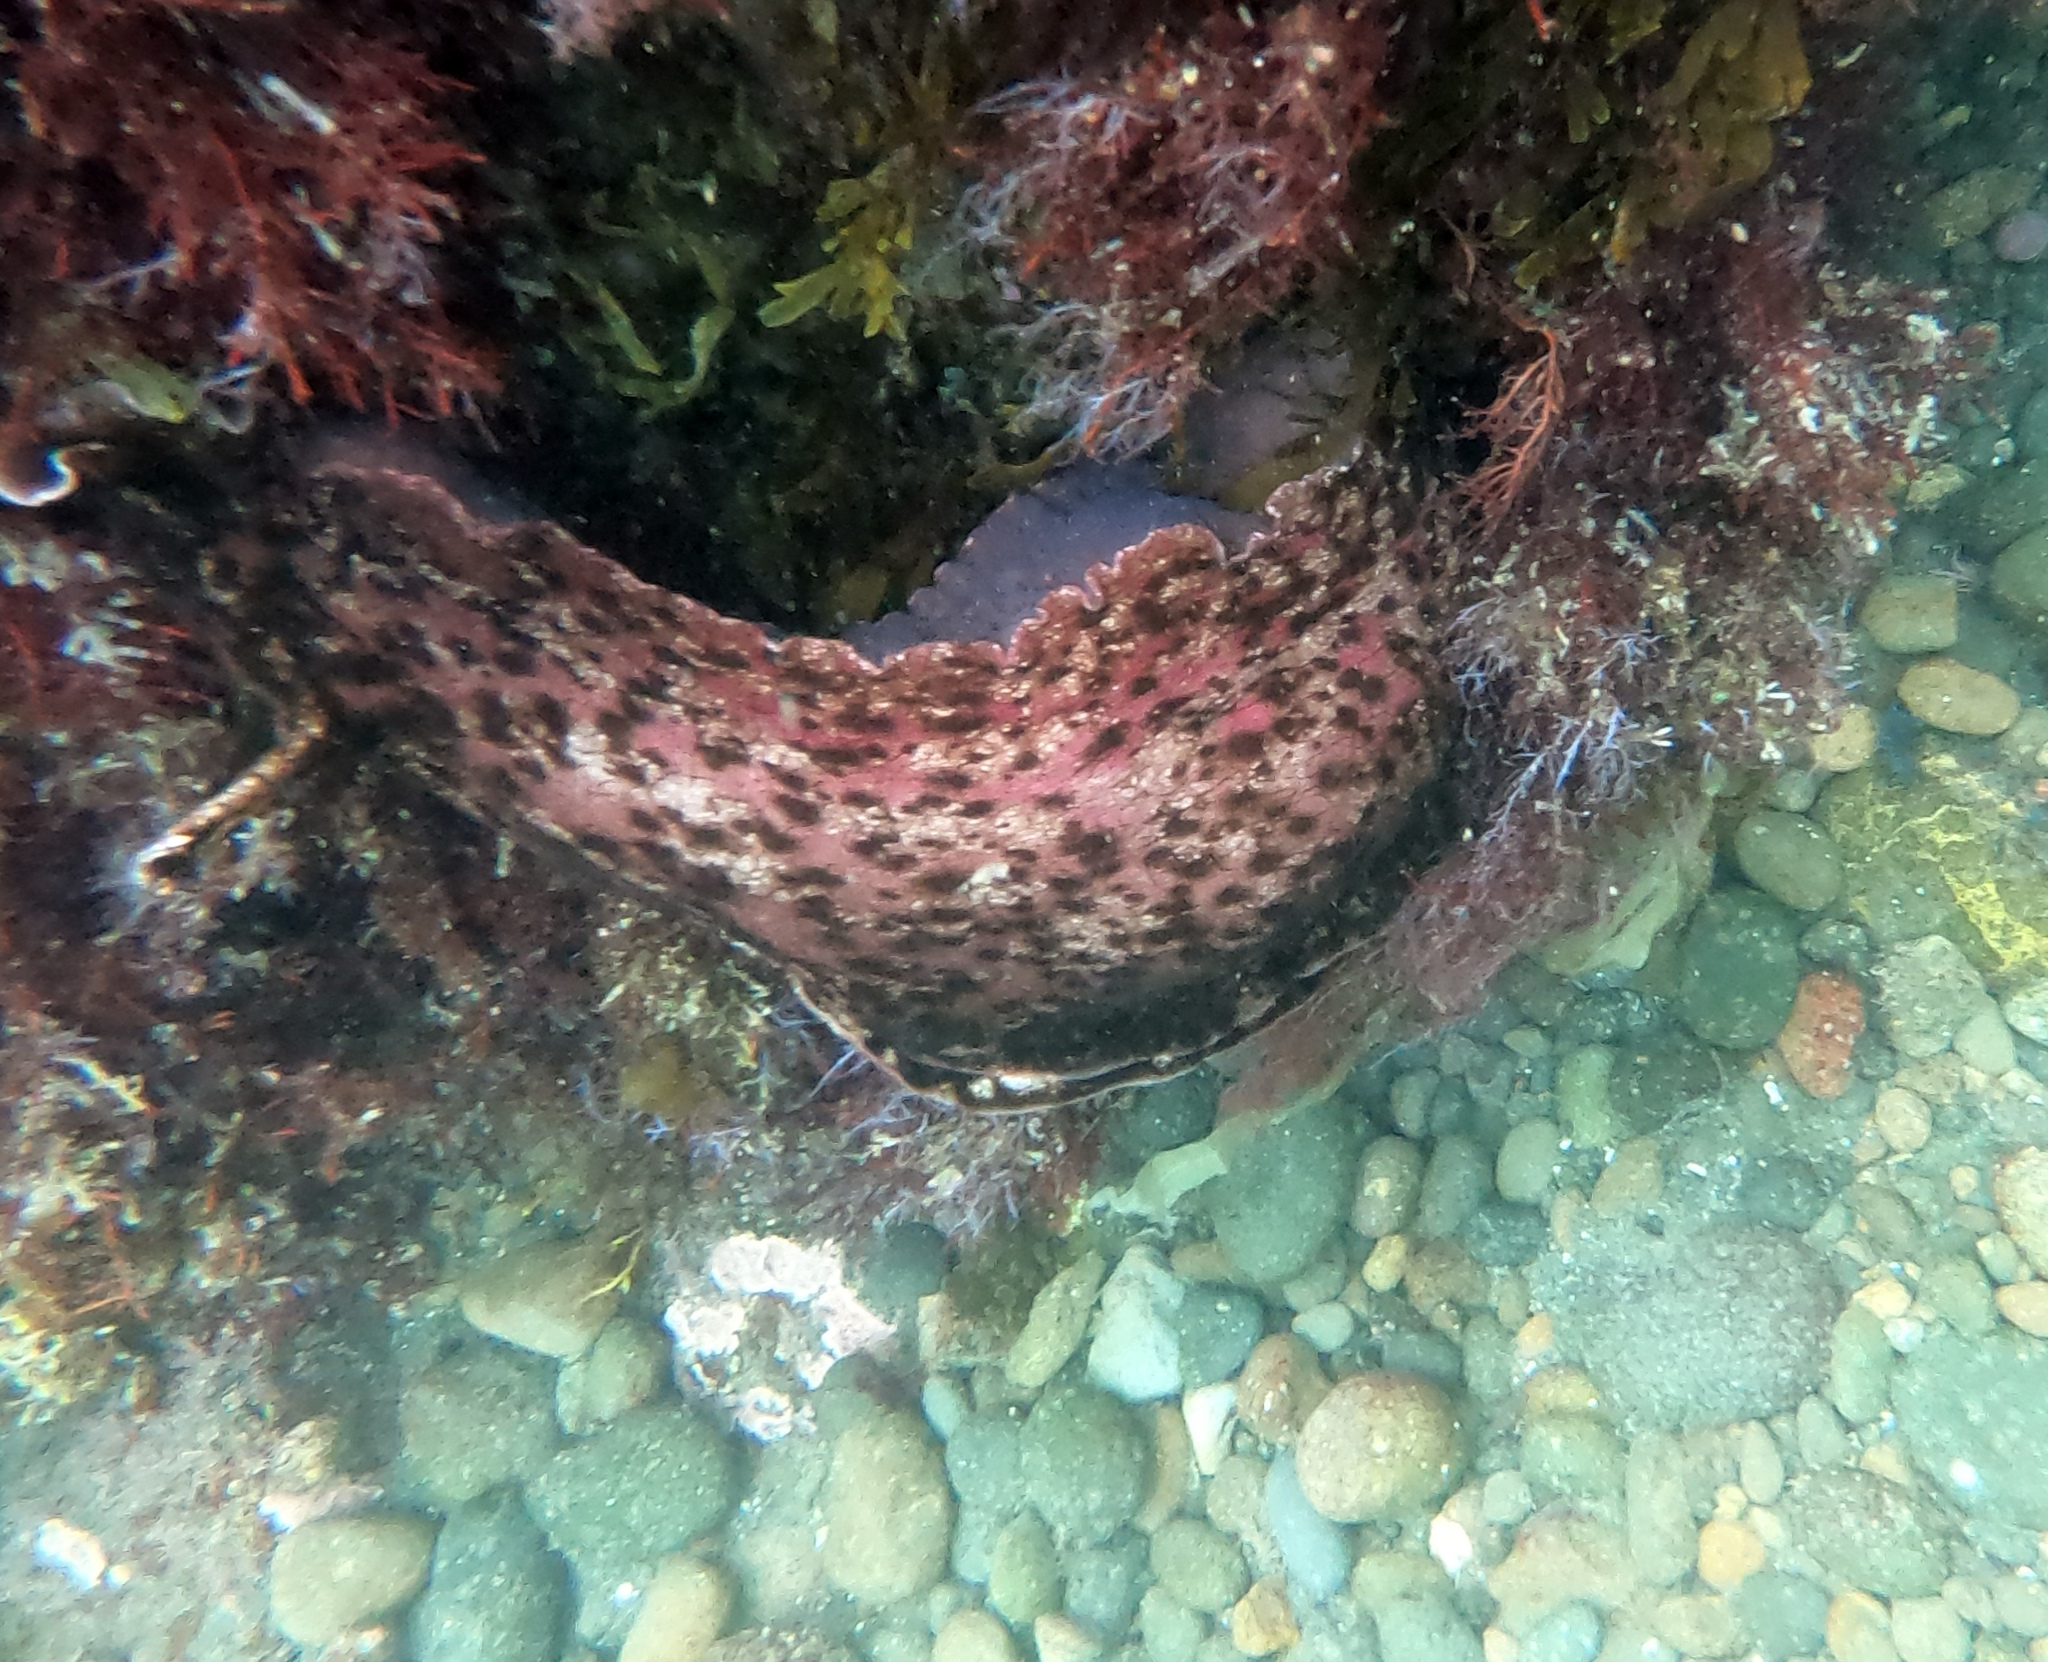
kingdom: Animalia
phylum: Mollusca
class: Gastropoda
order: Aplysiida
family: Aplysiidae
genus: Aplysia
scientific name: Aplysia californica
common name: California seahare
